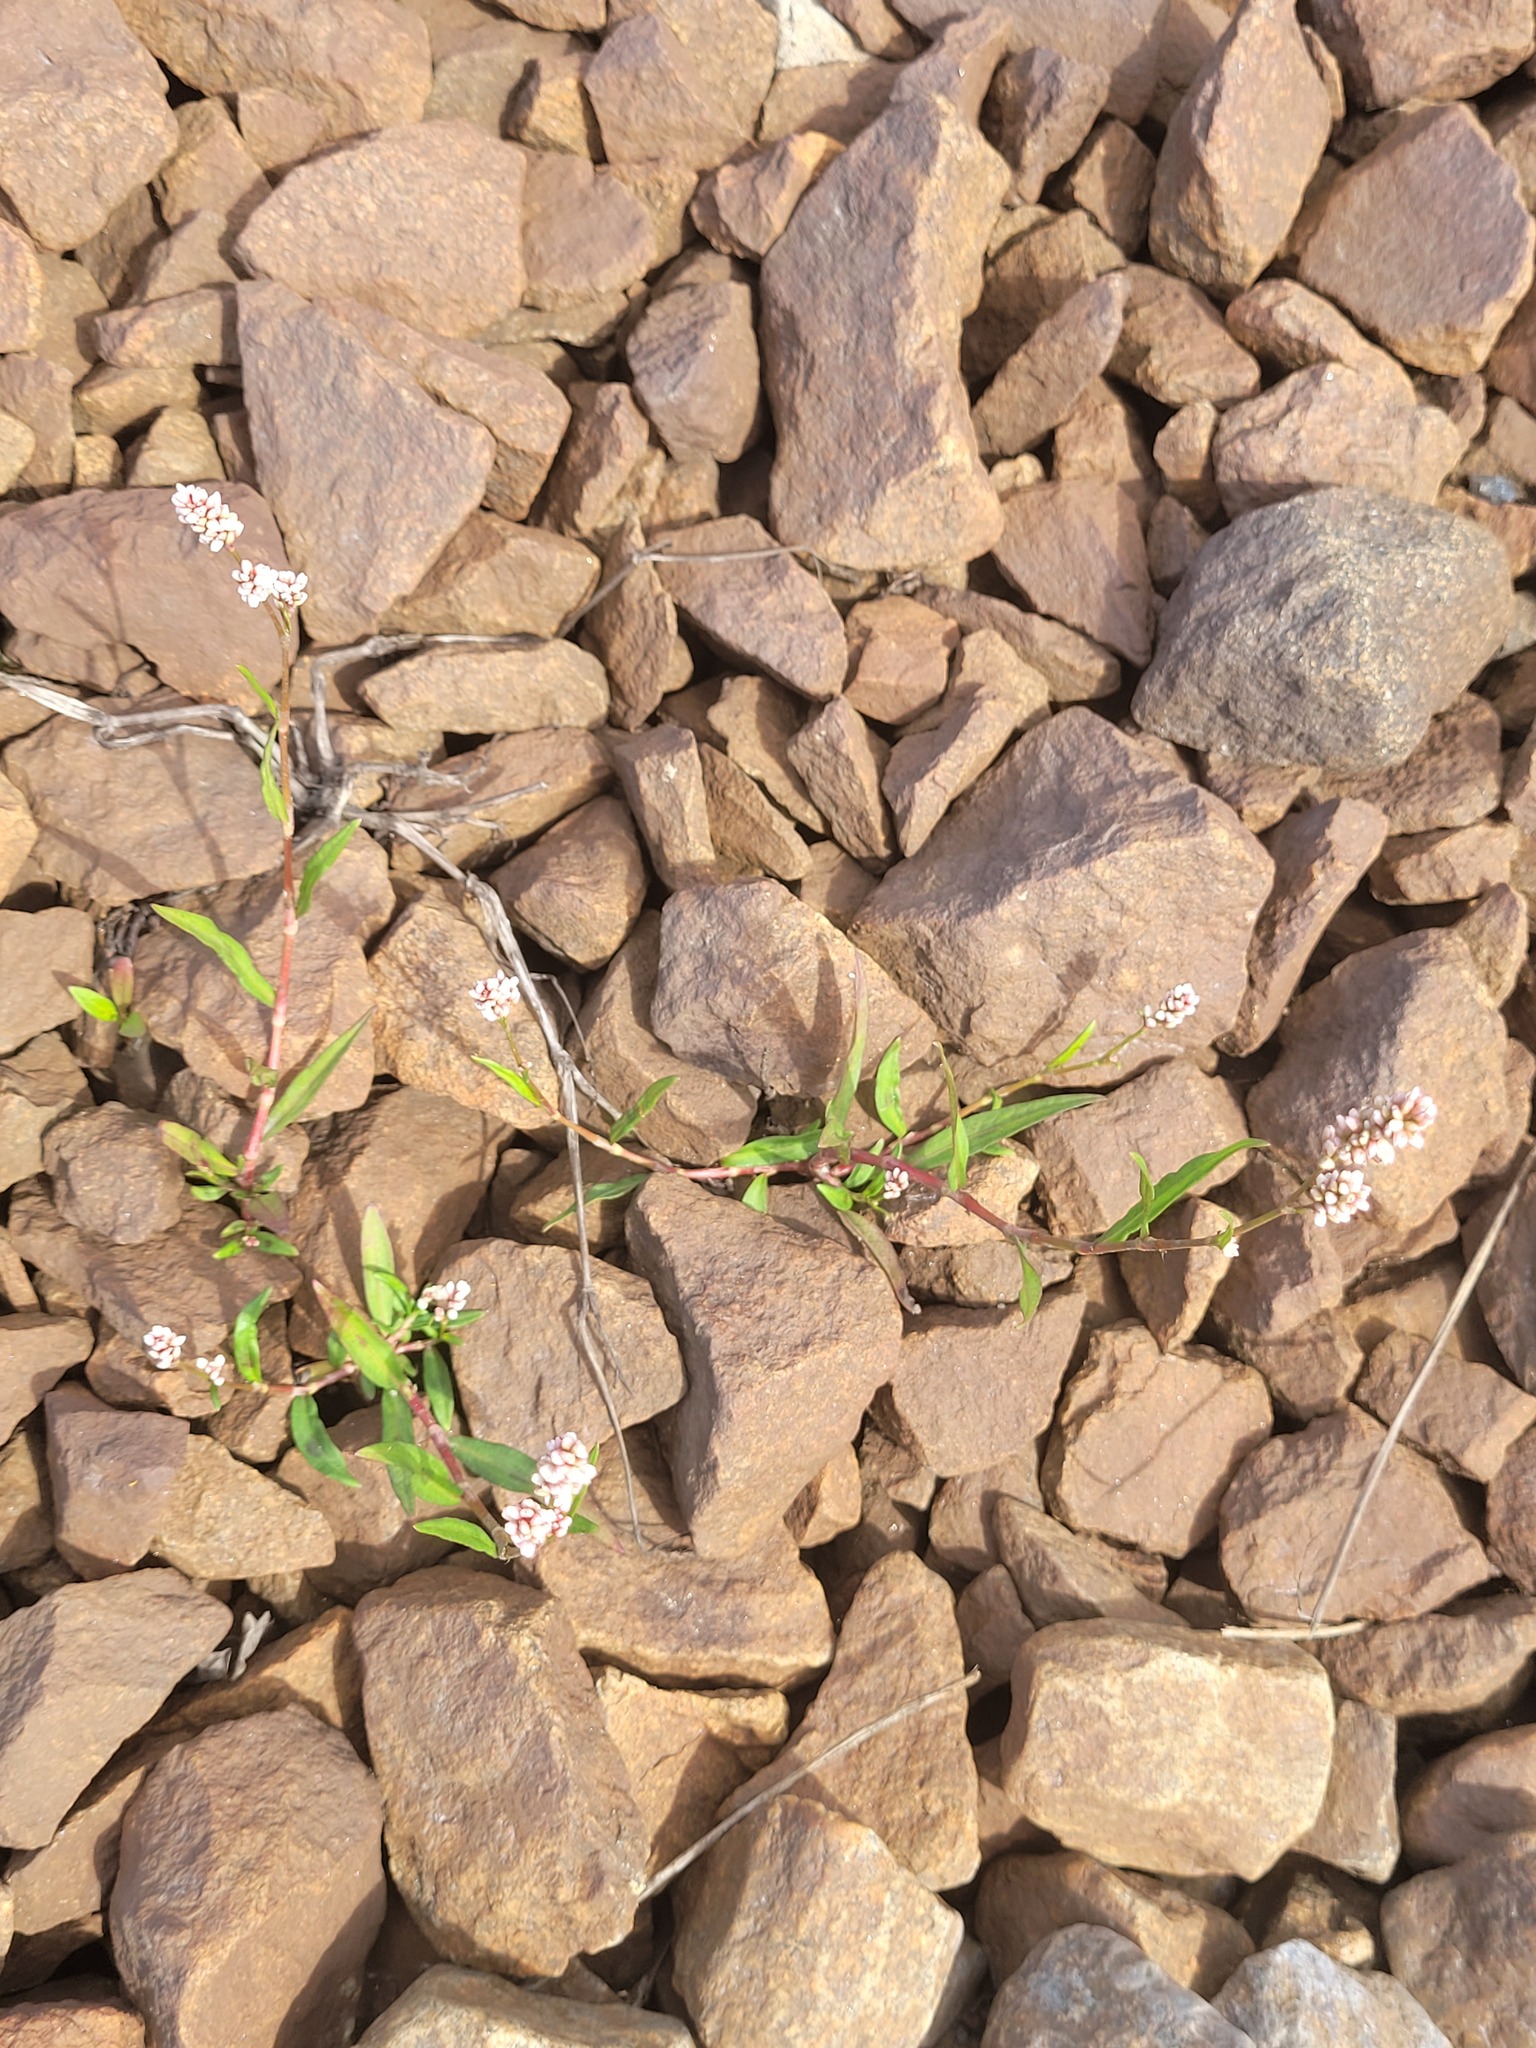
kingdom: Plantae
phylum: Tracheophyta
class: Magnoliopsida
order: Caryophyllales
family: Polygonaceae
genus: Persicaria
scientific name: Persicaria maculosa
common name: Redshank
